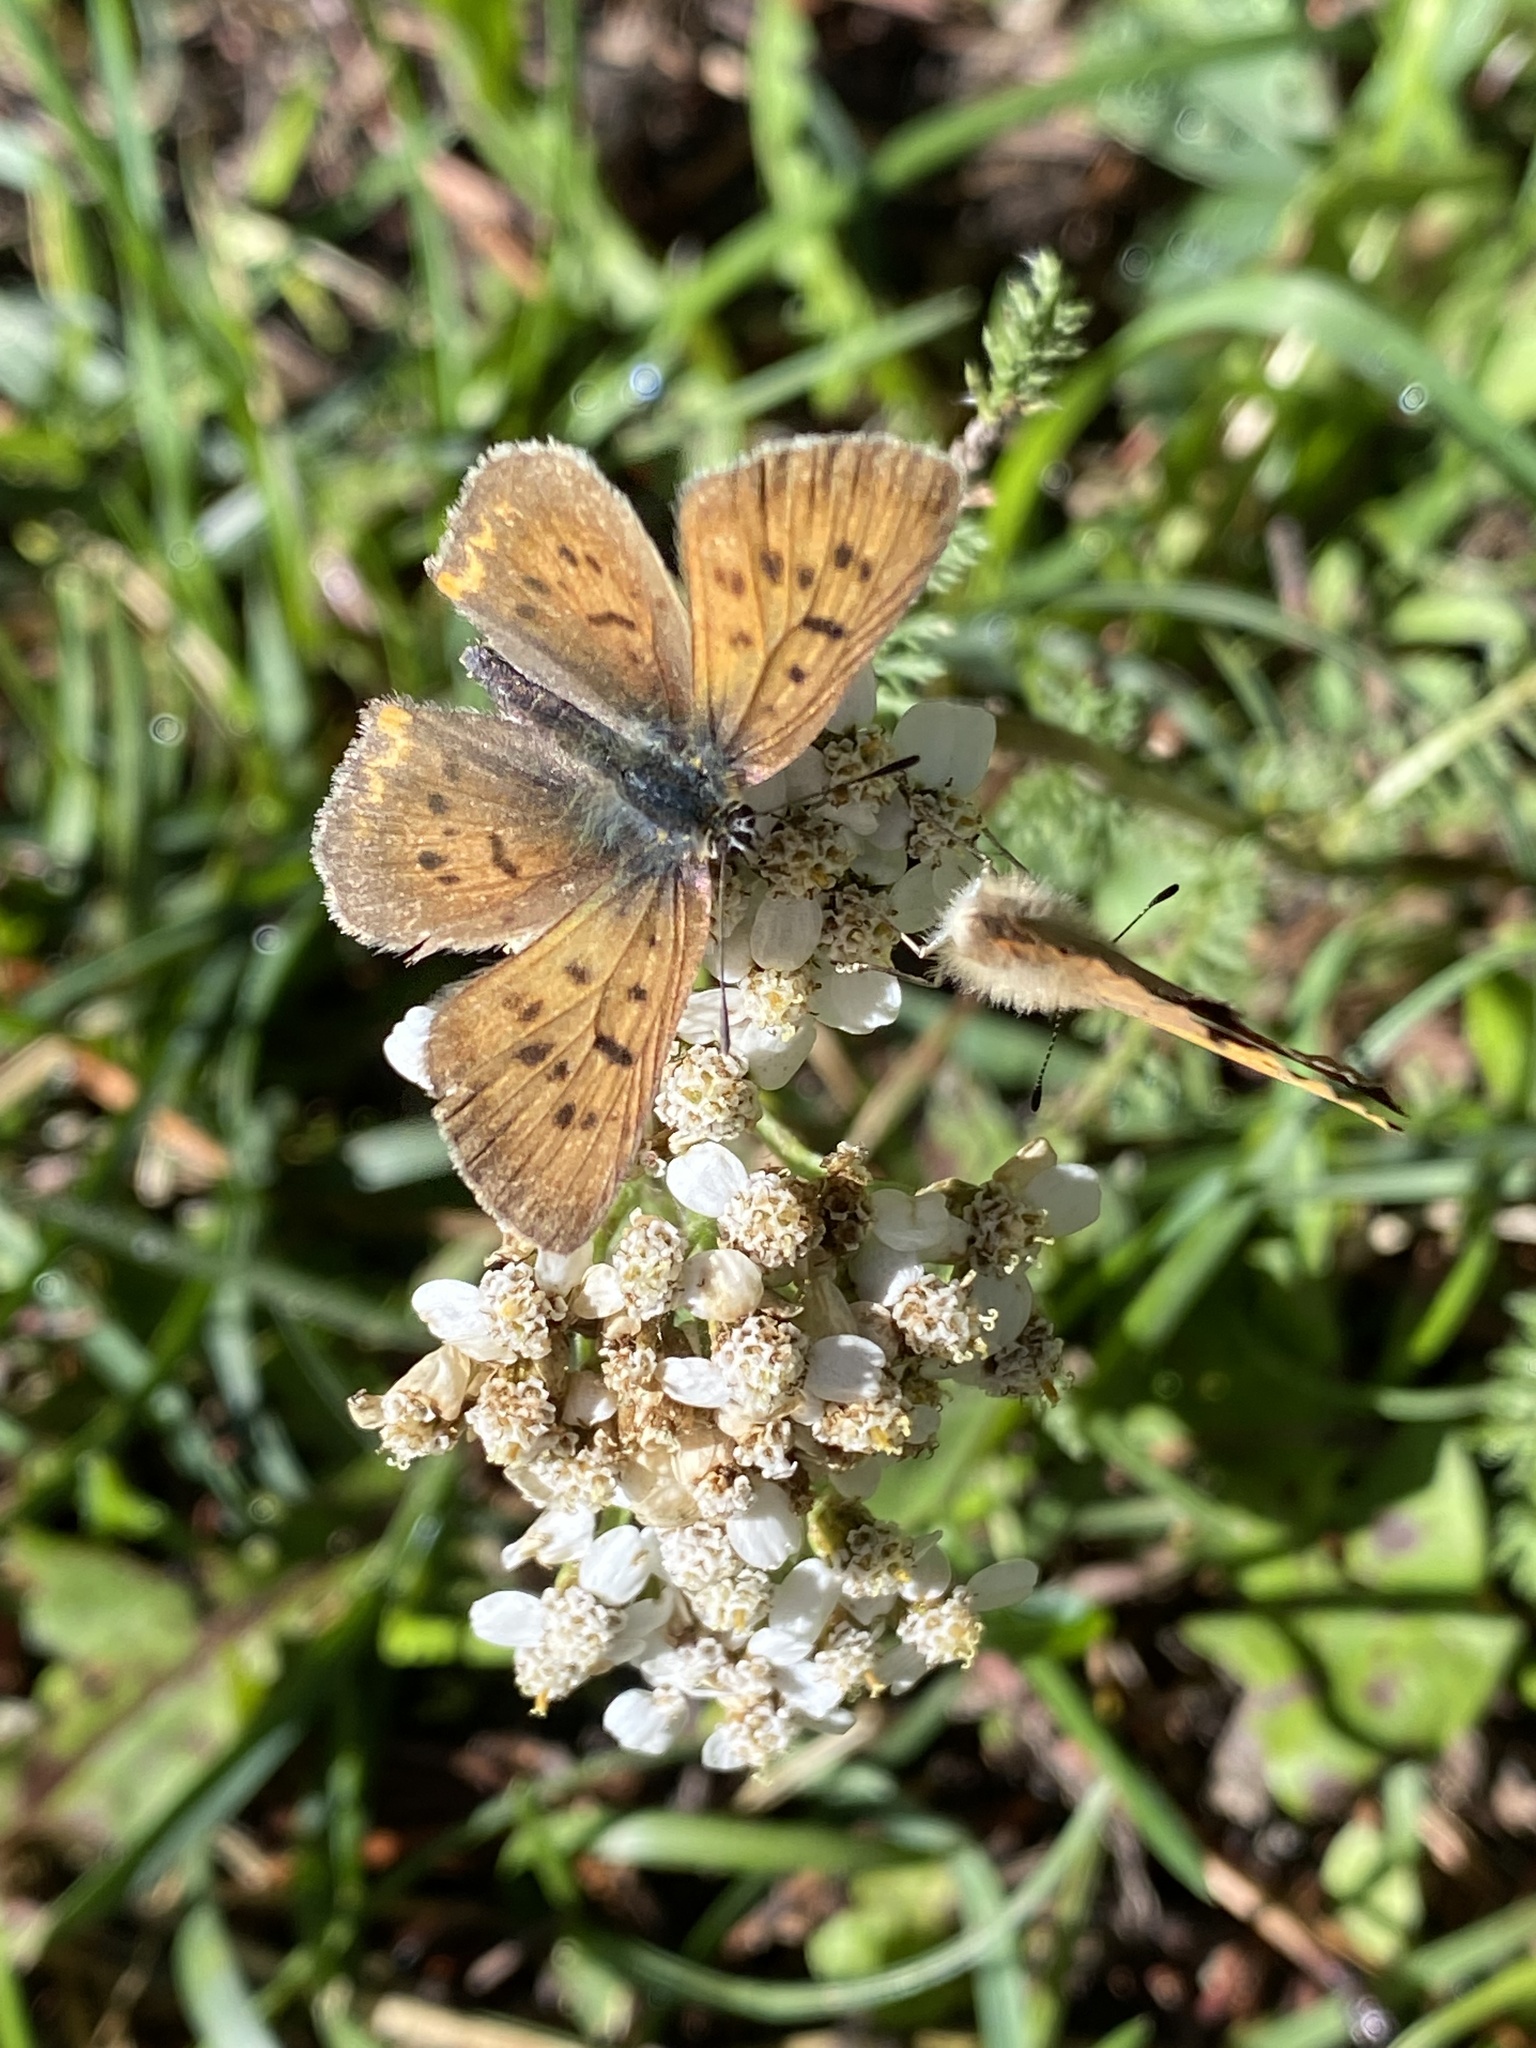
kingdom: Animalia
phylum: Arthropoda
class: Insecta
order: Lepidoptera
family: Lycaenidae
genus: Tharsalea
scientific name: Tharsalea dorcas
